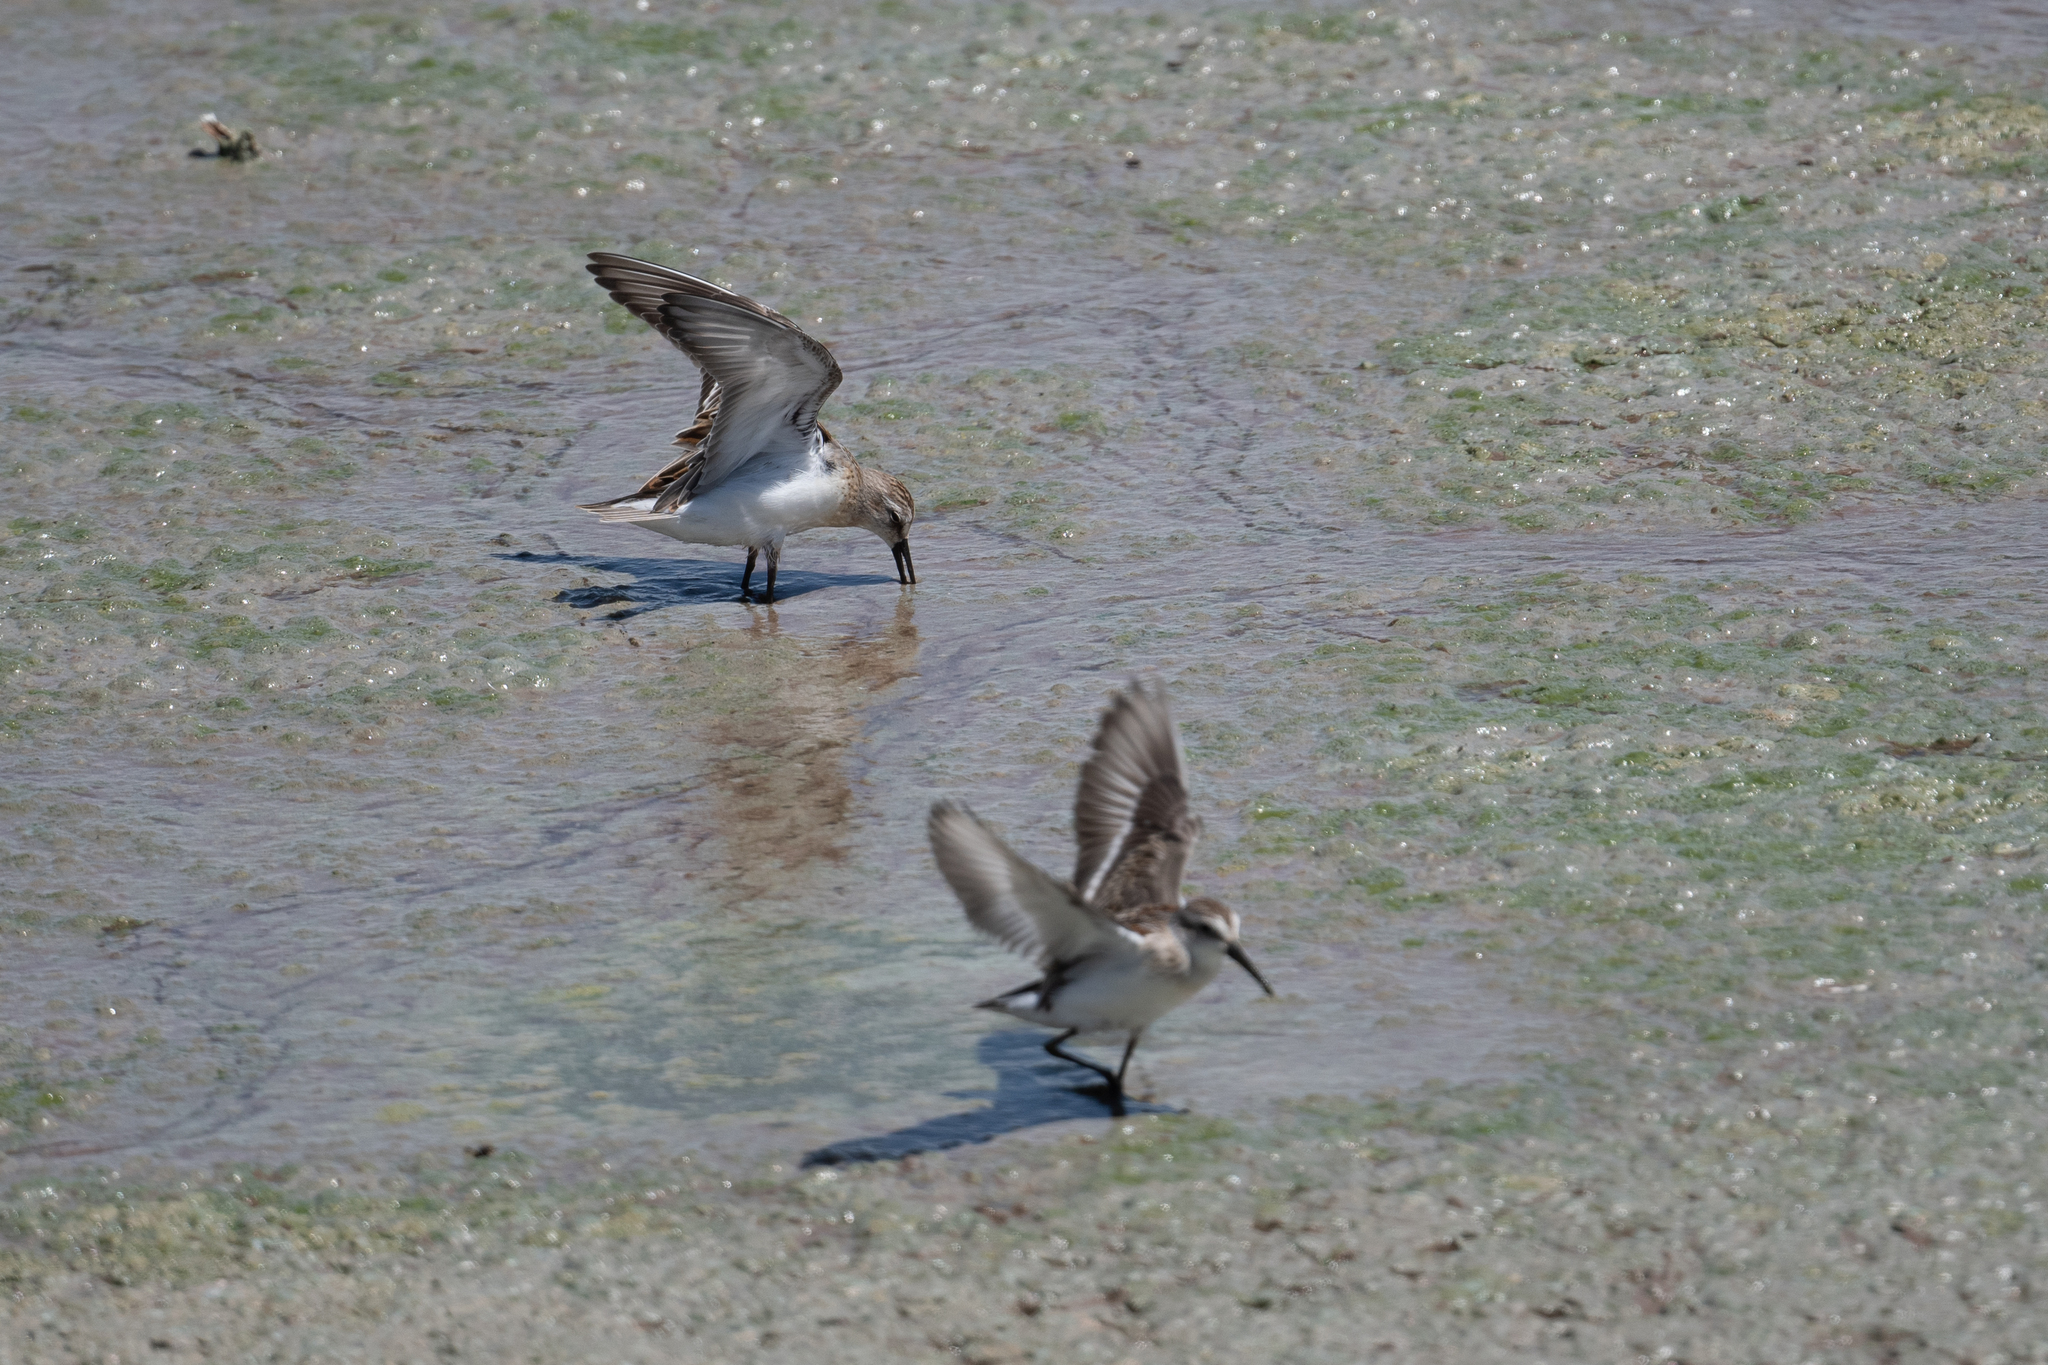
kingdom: Animalia
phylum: Chordata
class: Aves
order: Charadriiformes
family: Scolopacidae
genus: Calidris
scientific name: Calidris mauri
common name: Western sandpiper
